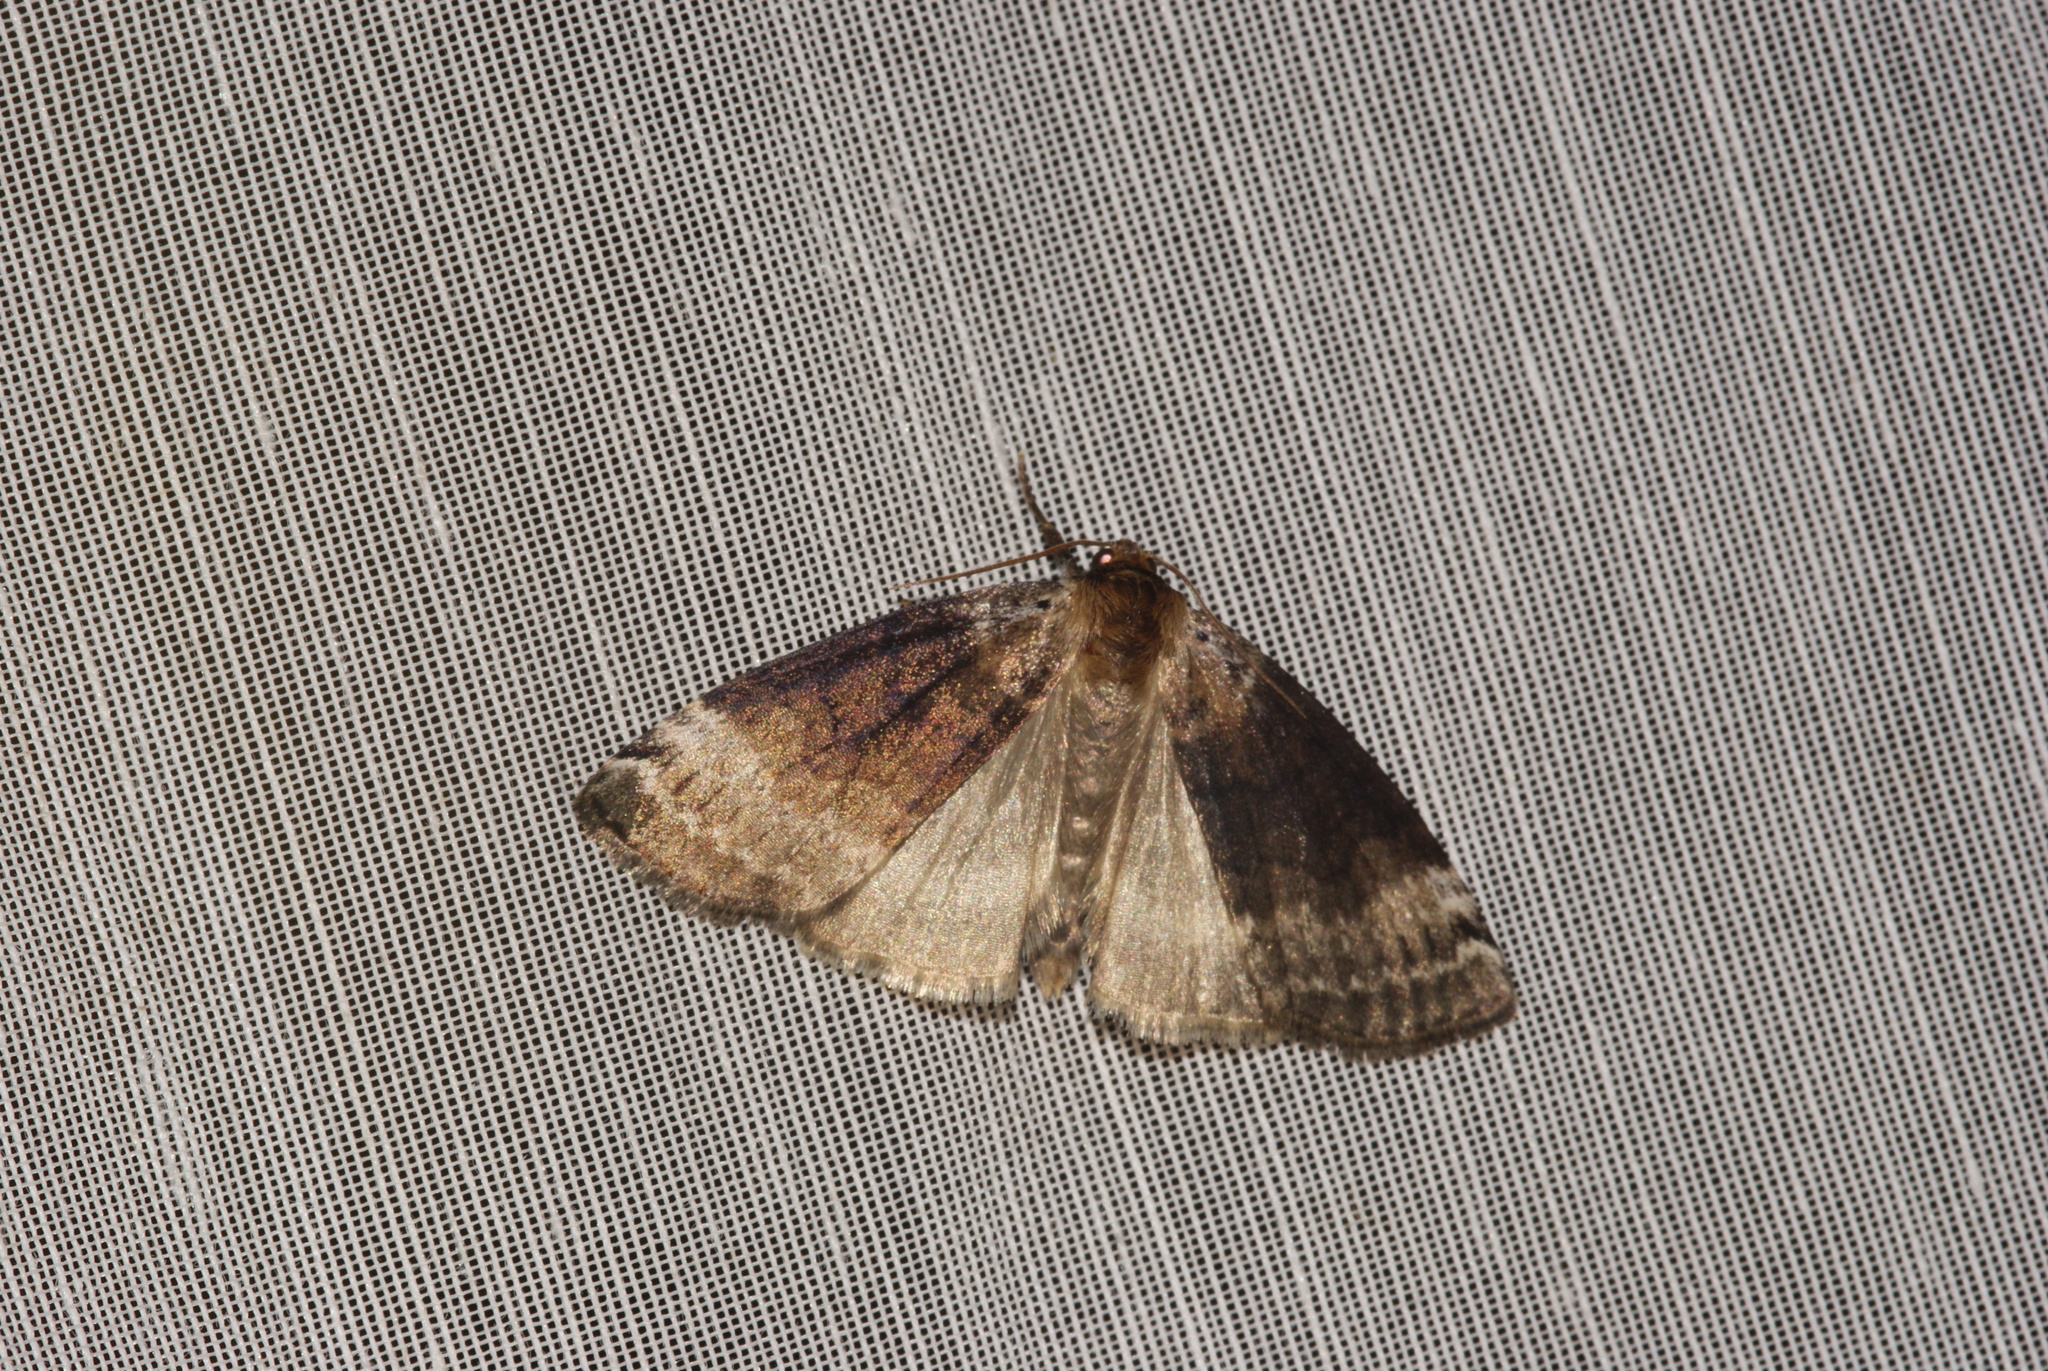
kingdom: Animalia
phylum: Arthropoda
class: Insecta
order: Lepidoptera
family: Drepanidae
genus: Tetheella
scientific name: Tetheella fluctuosa
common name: Satin lutestring
